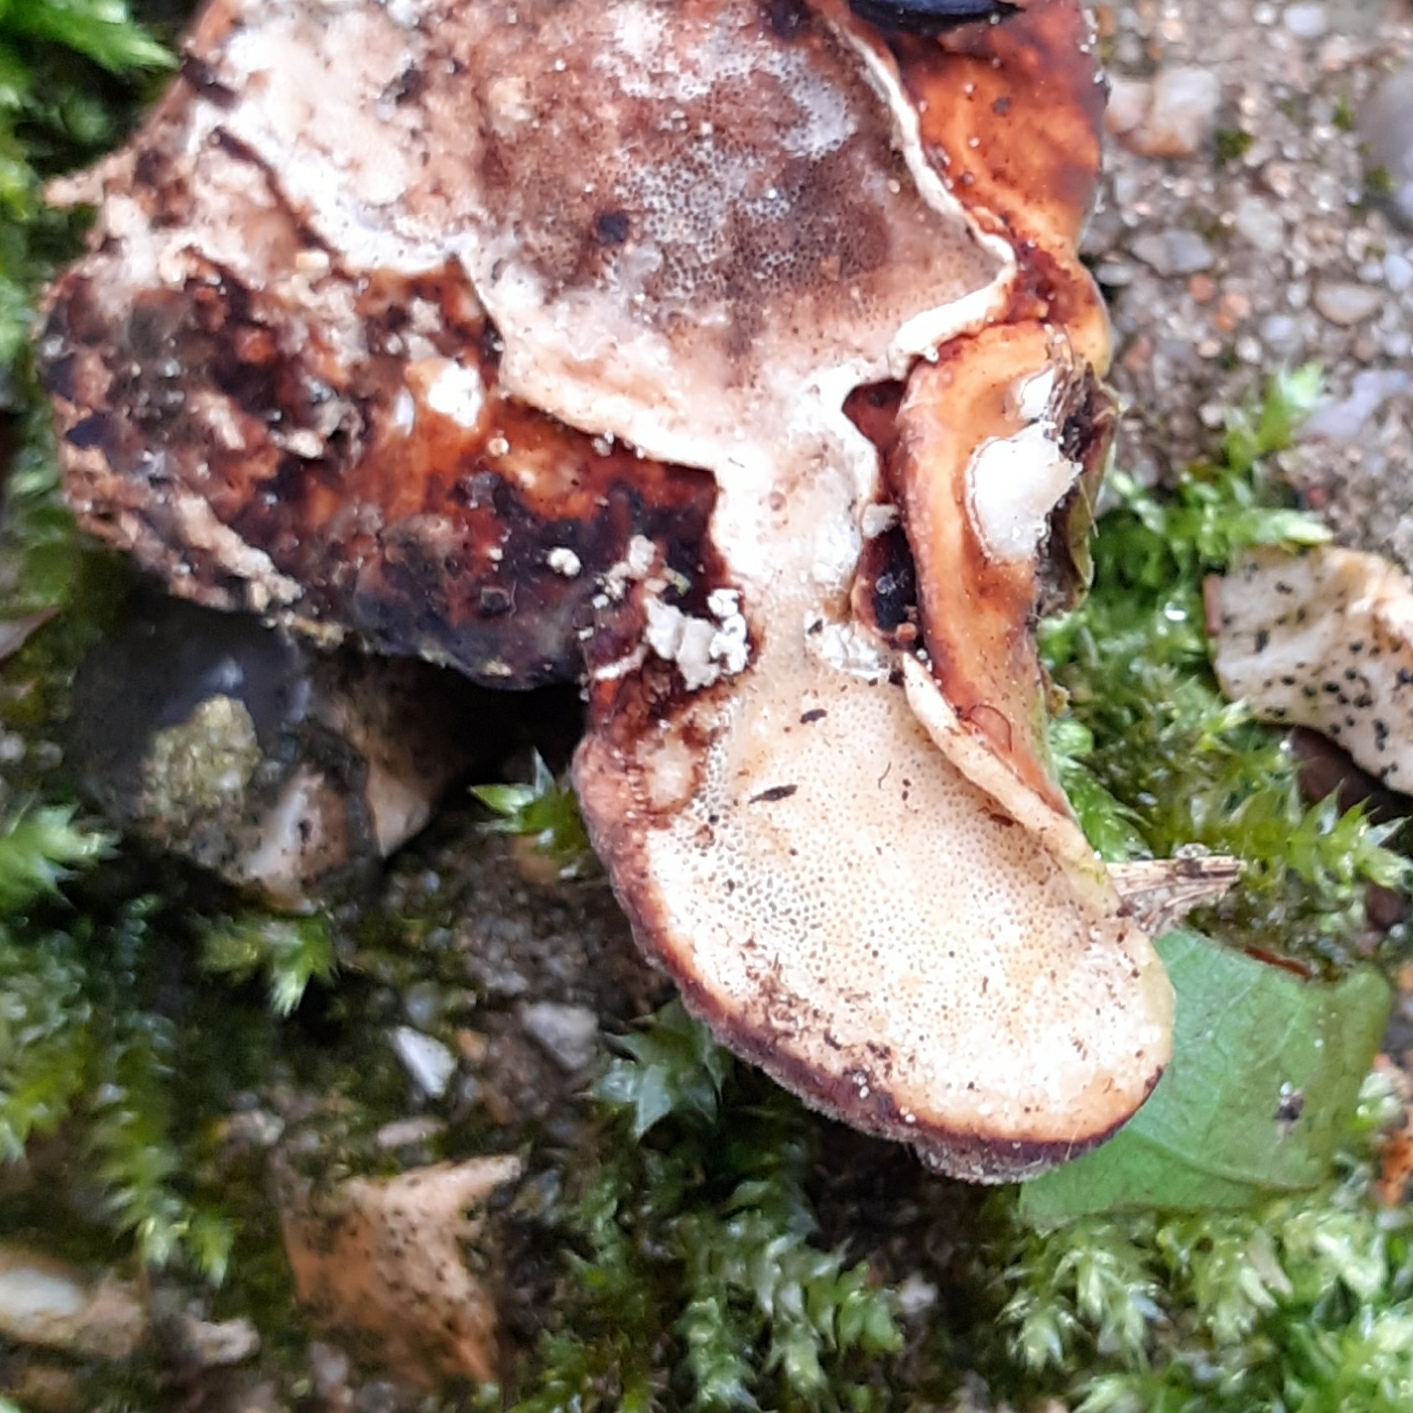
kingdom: Fungi
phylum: Basidiomycota
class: Agaricomycetes
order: Polyporales
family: Polyporaceae
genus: Trametes
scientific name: Trametes versicolor
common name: Turkeytail
